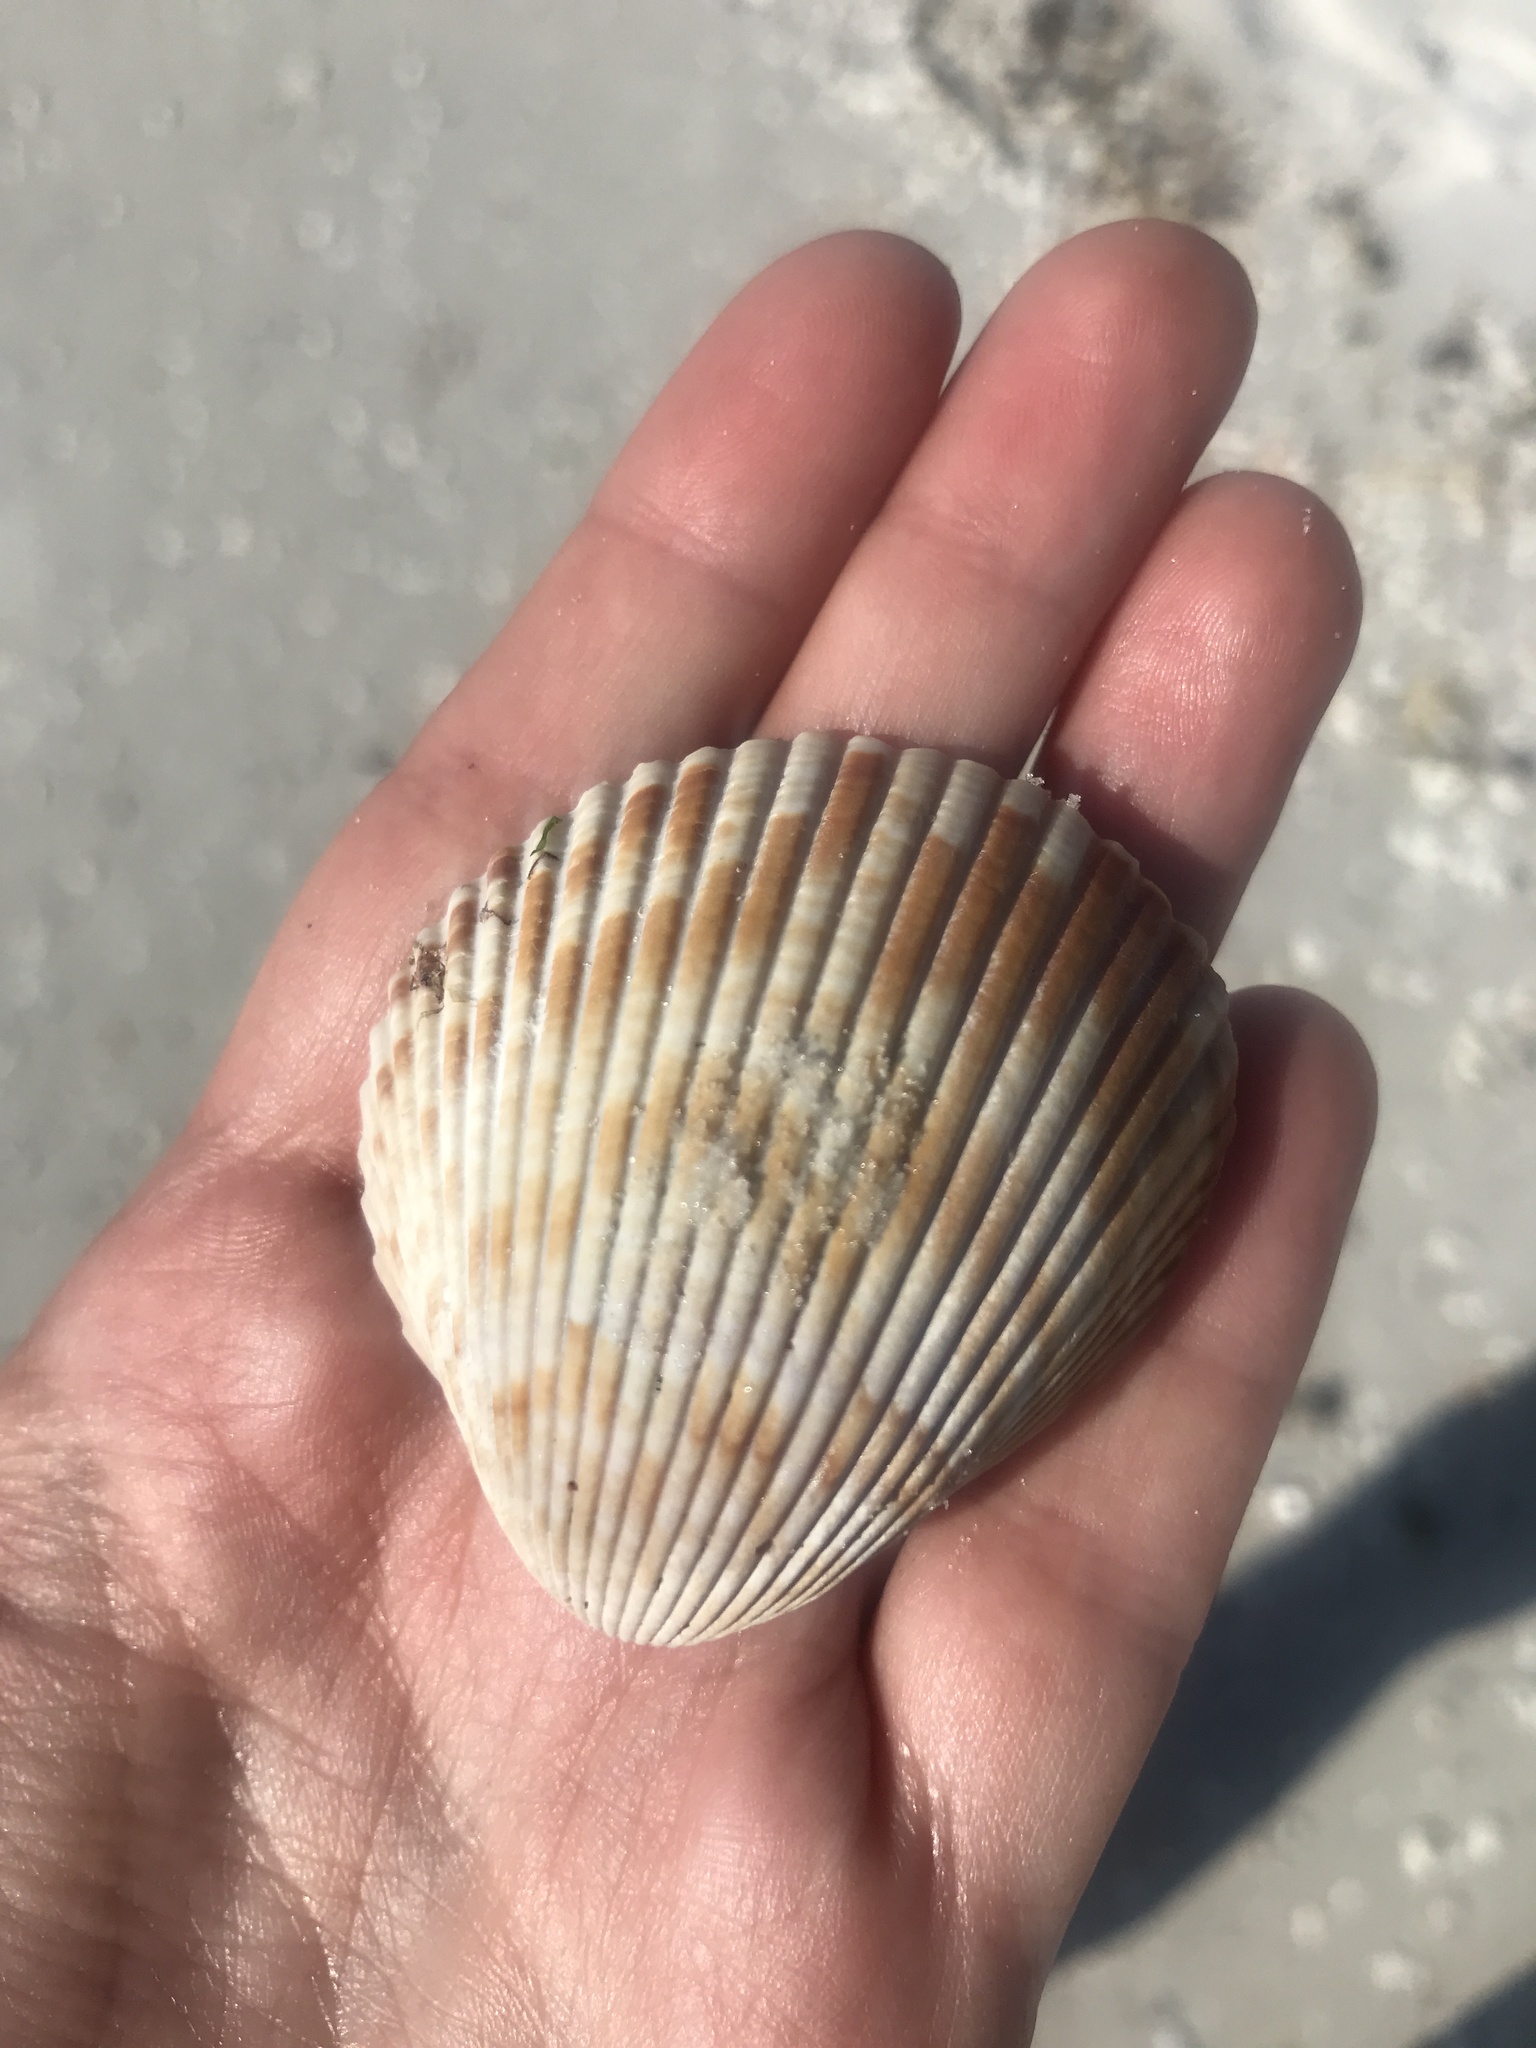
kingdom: Animalia
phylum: Mollusca
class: Bivalvia
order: Cardiida
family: Cardiidae
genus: Dinocardium
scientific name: Dinocardium robustum
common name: Atlantic giant cockle
